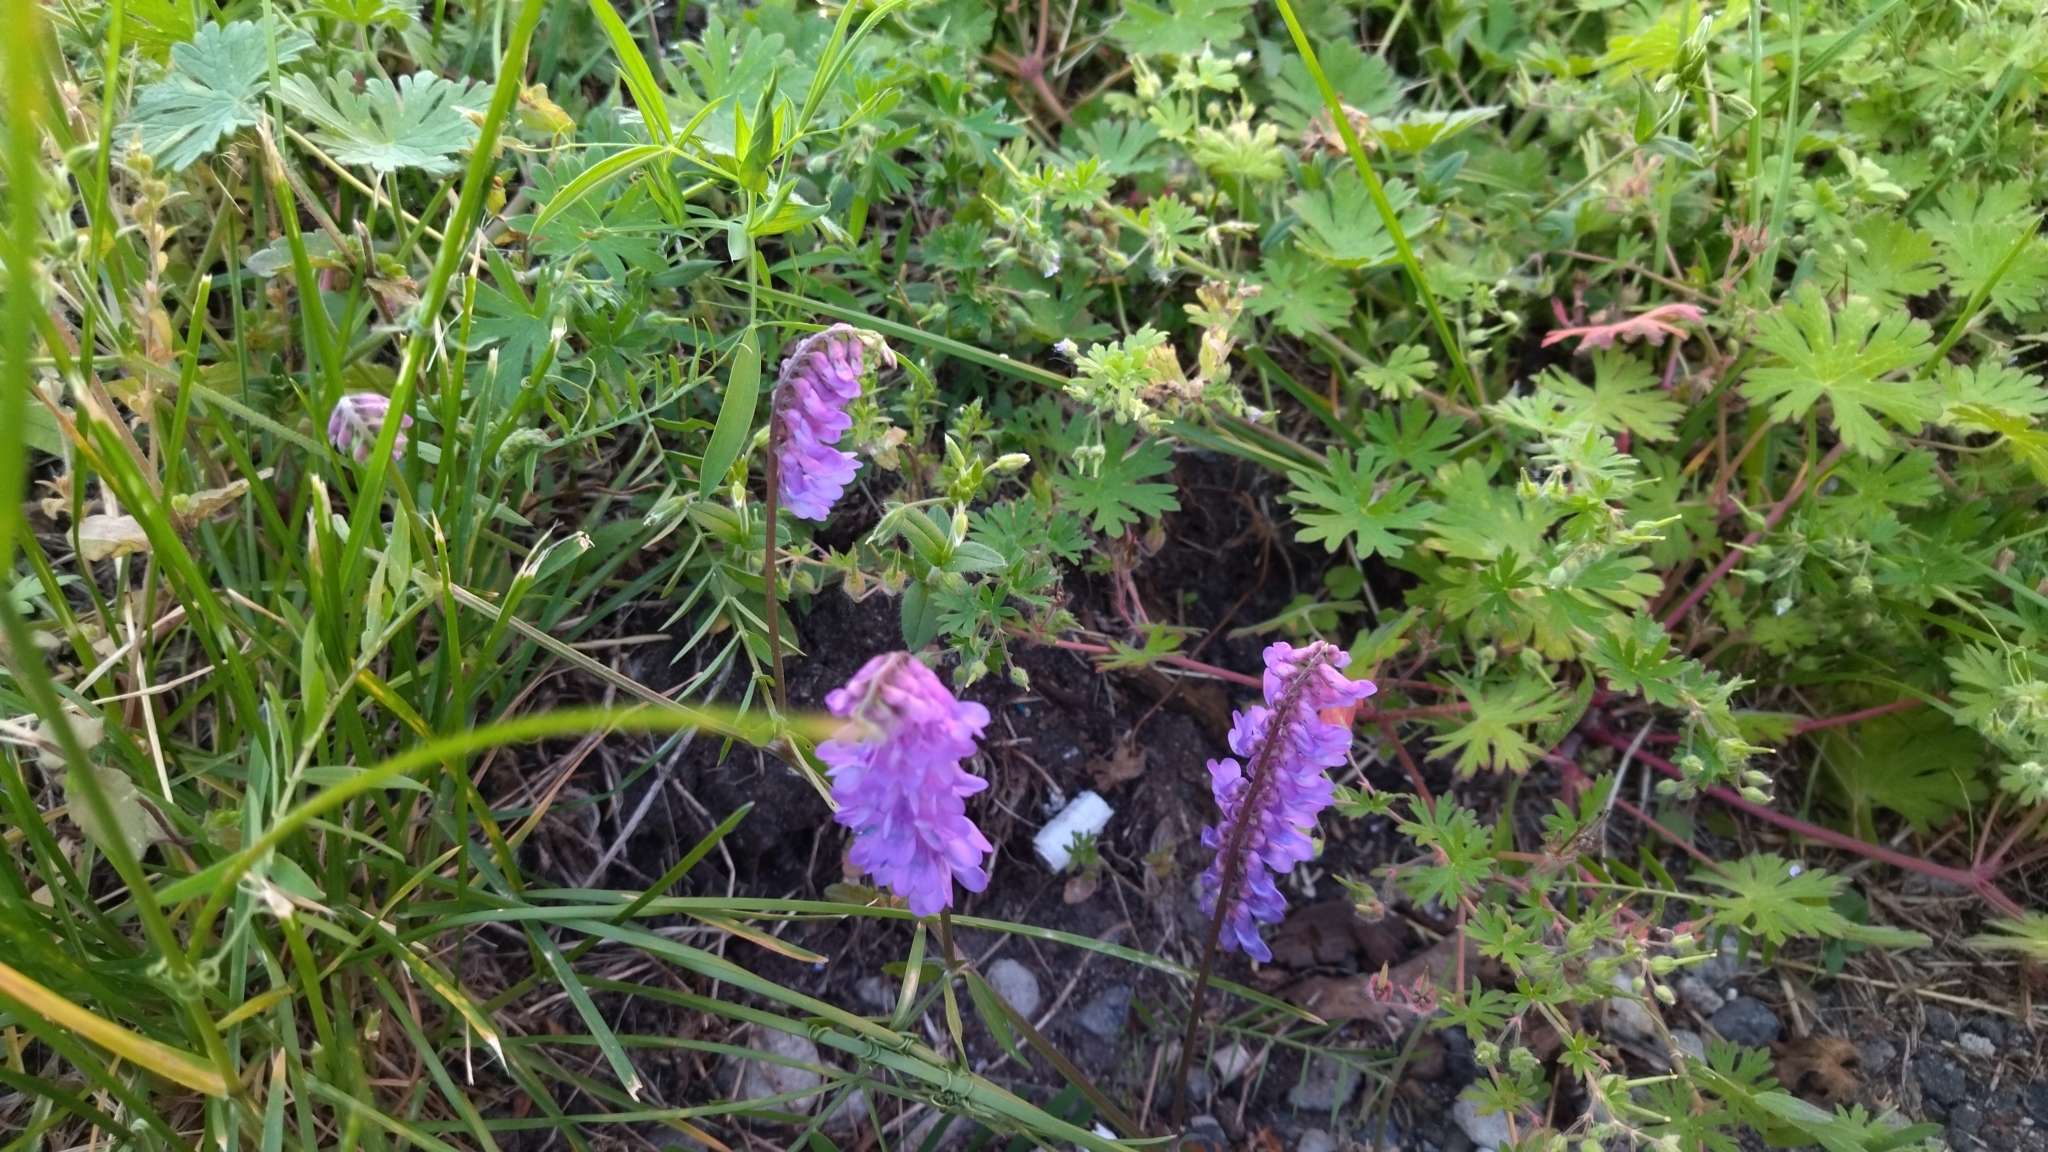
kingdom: Plantae
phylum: Tracheophyta
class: Magnoliopsida
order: Fabales
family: Fabaceae
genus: Vicia
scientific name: Vicia cracca
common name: Bird vetch
